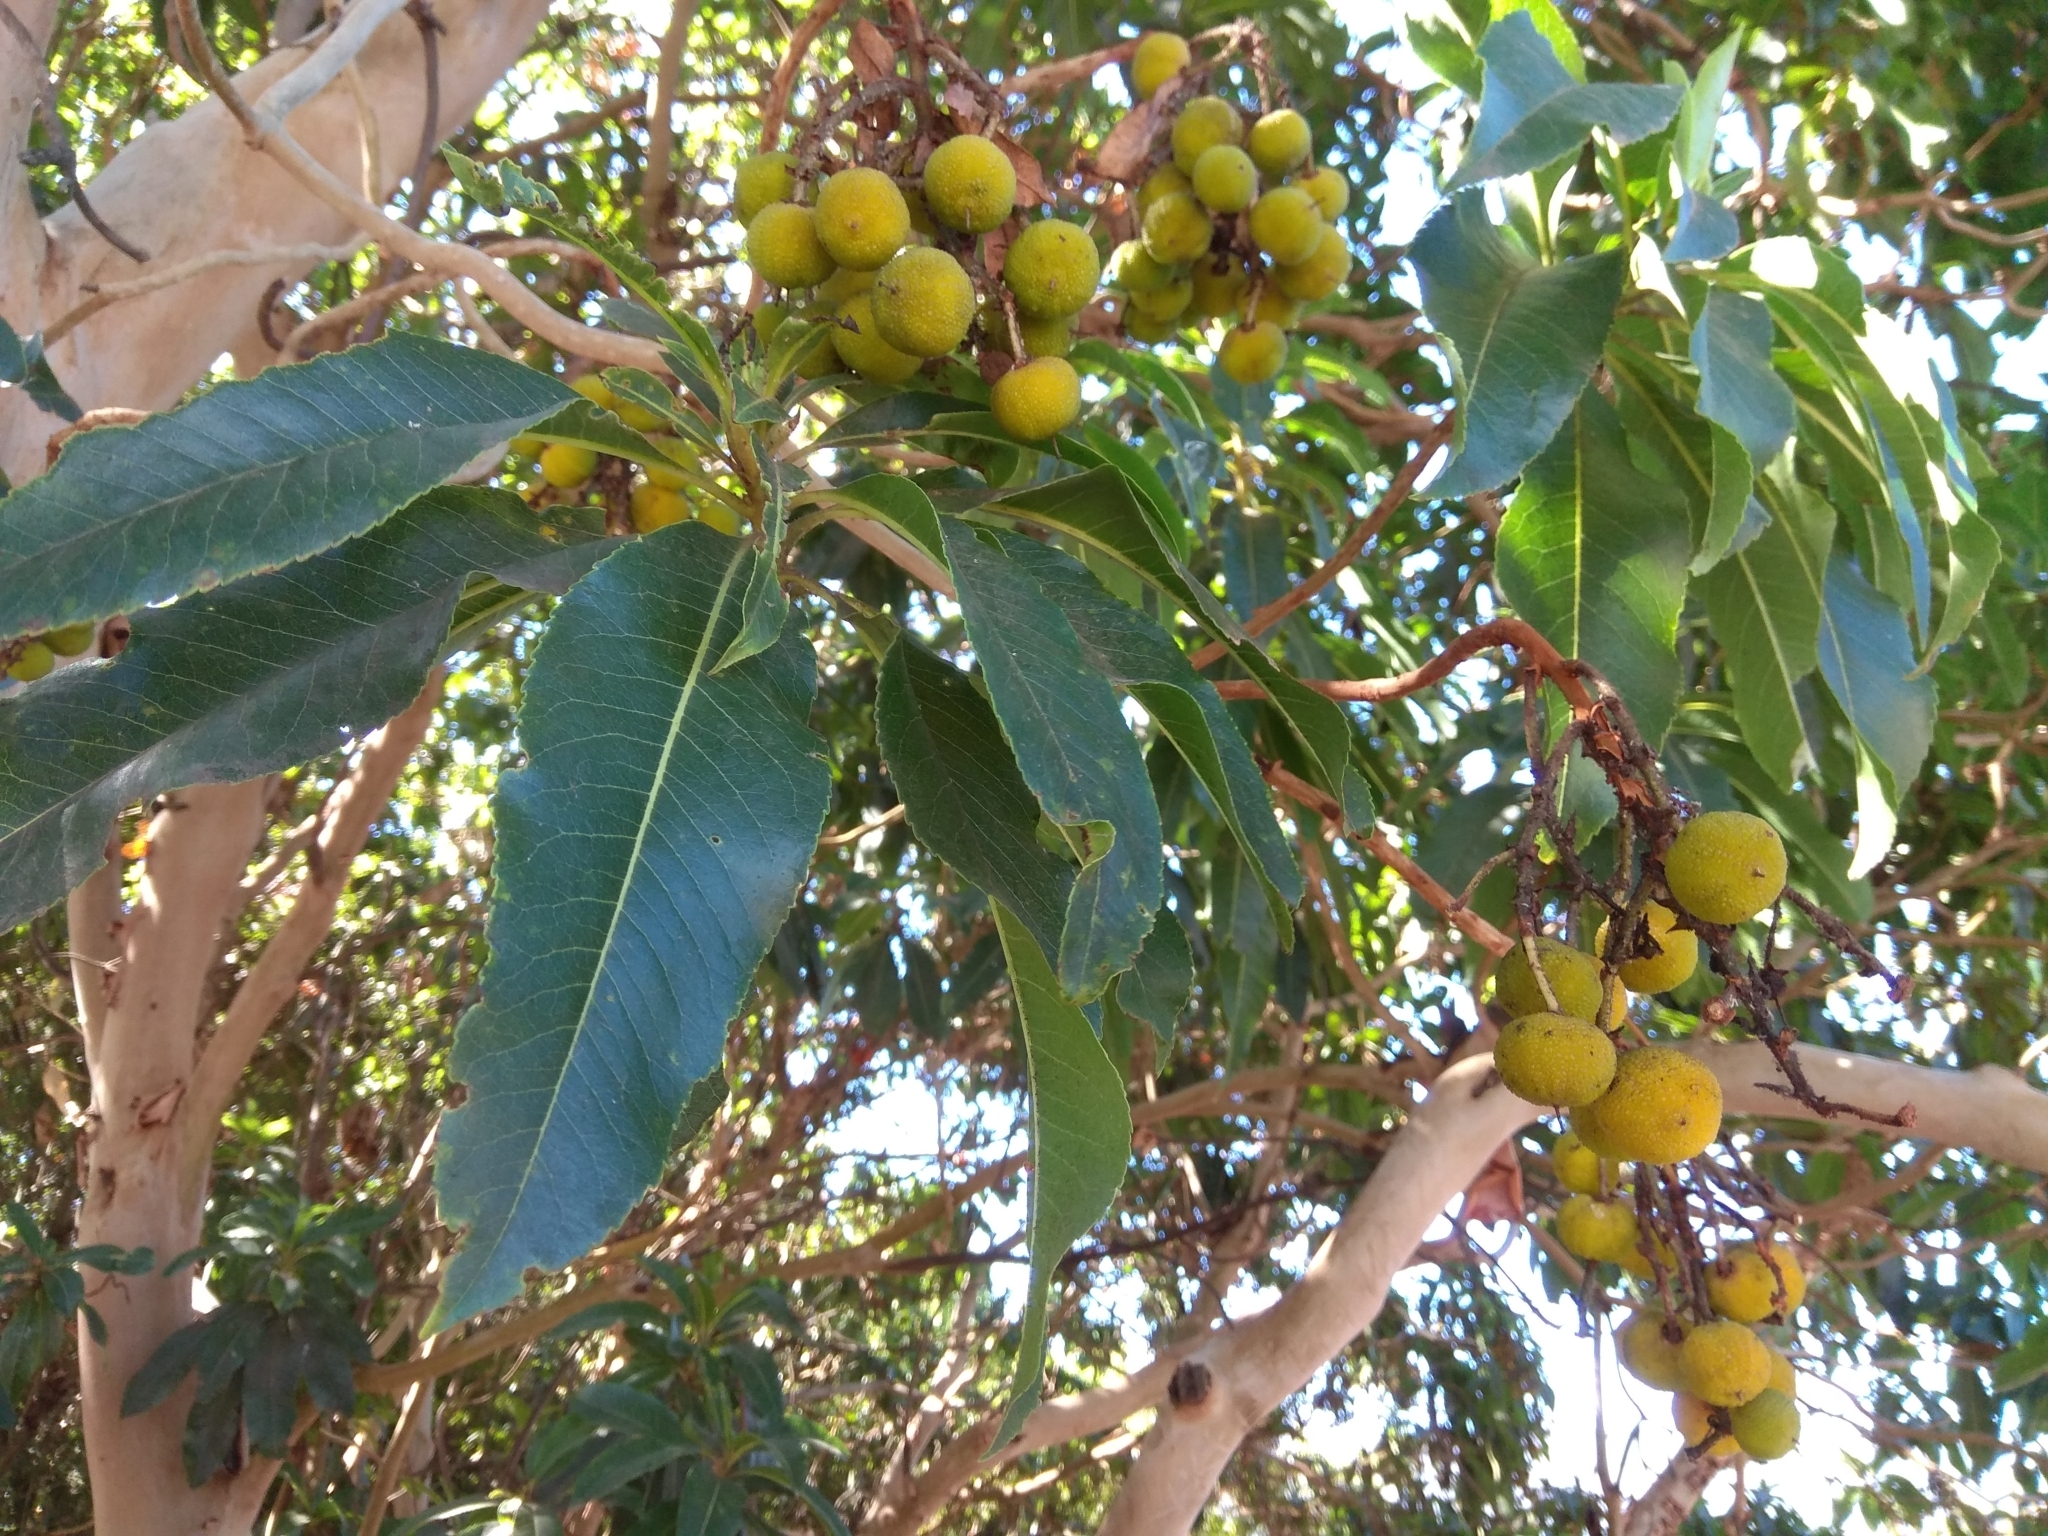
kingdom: Plantae
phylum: Tracheophyta
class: Magnoliopsida
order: Ericales
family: Ericaceae
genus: Arbutus
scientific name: Arbutus canariensis
